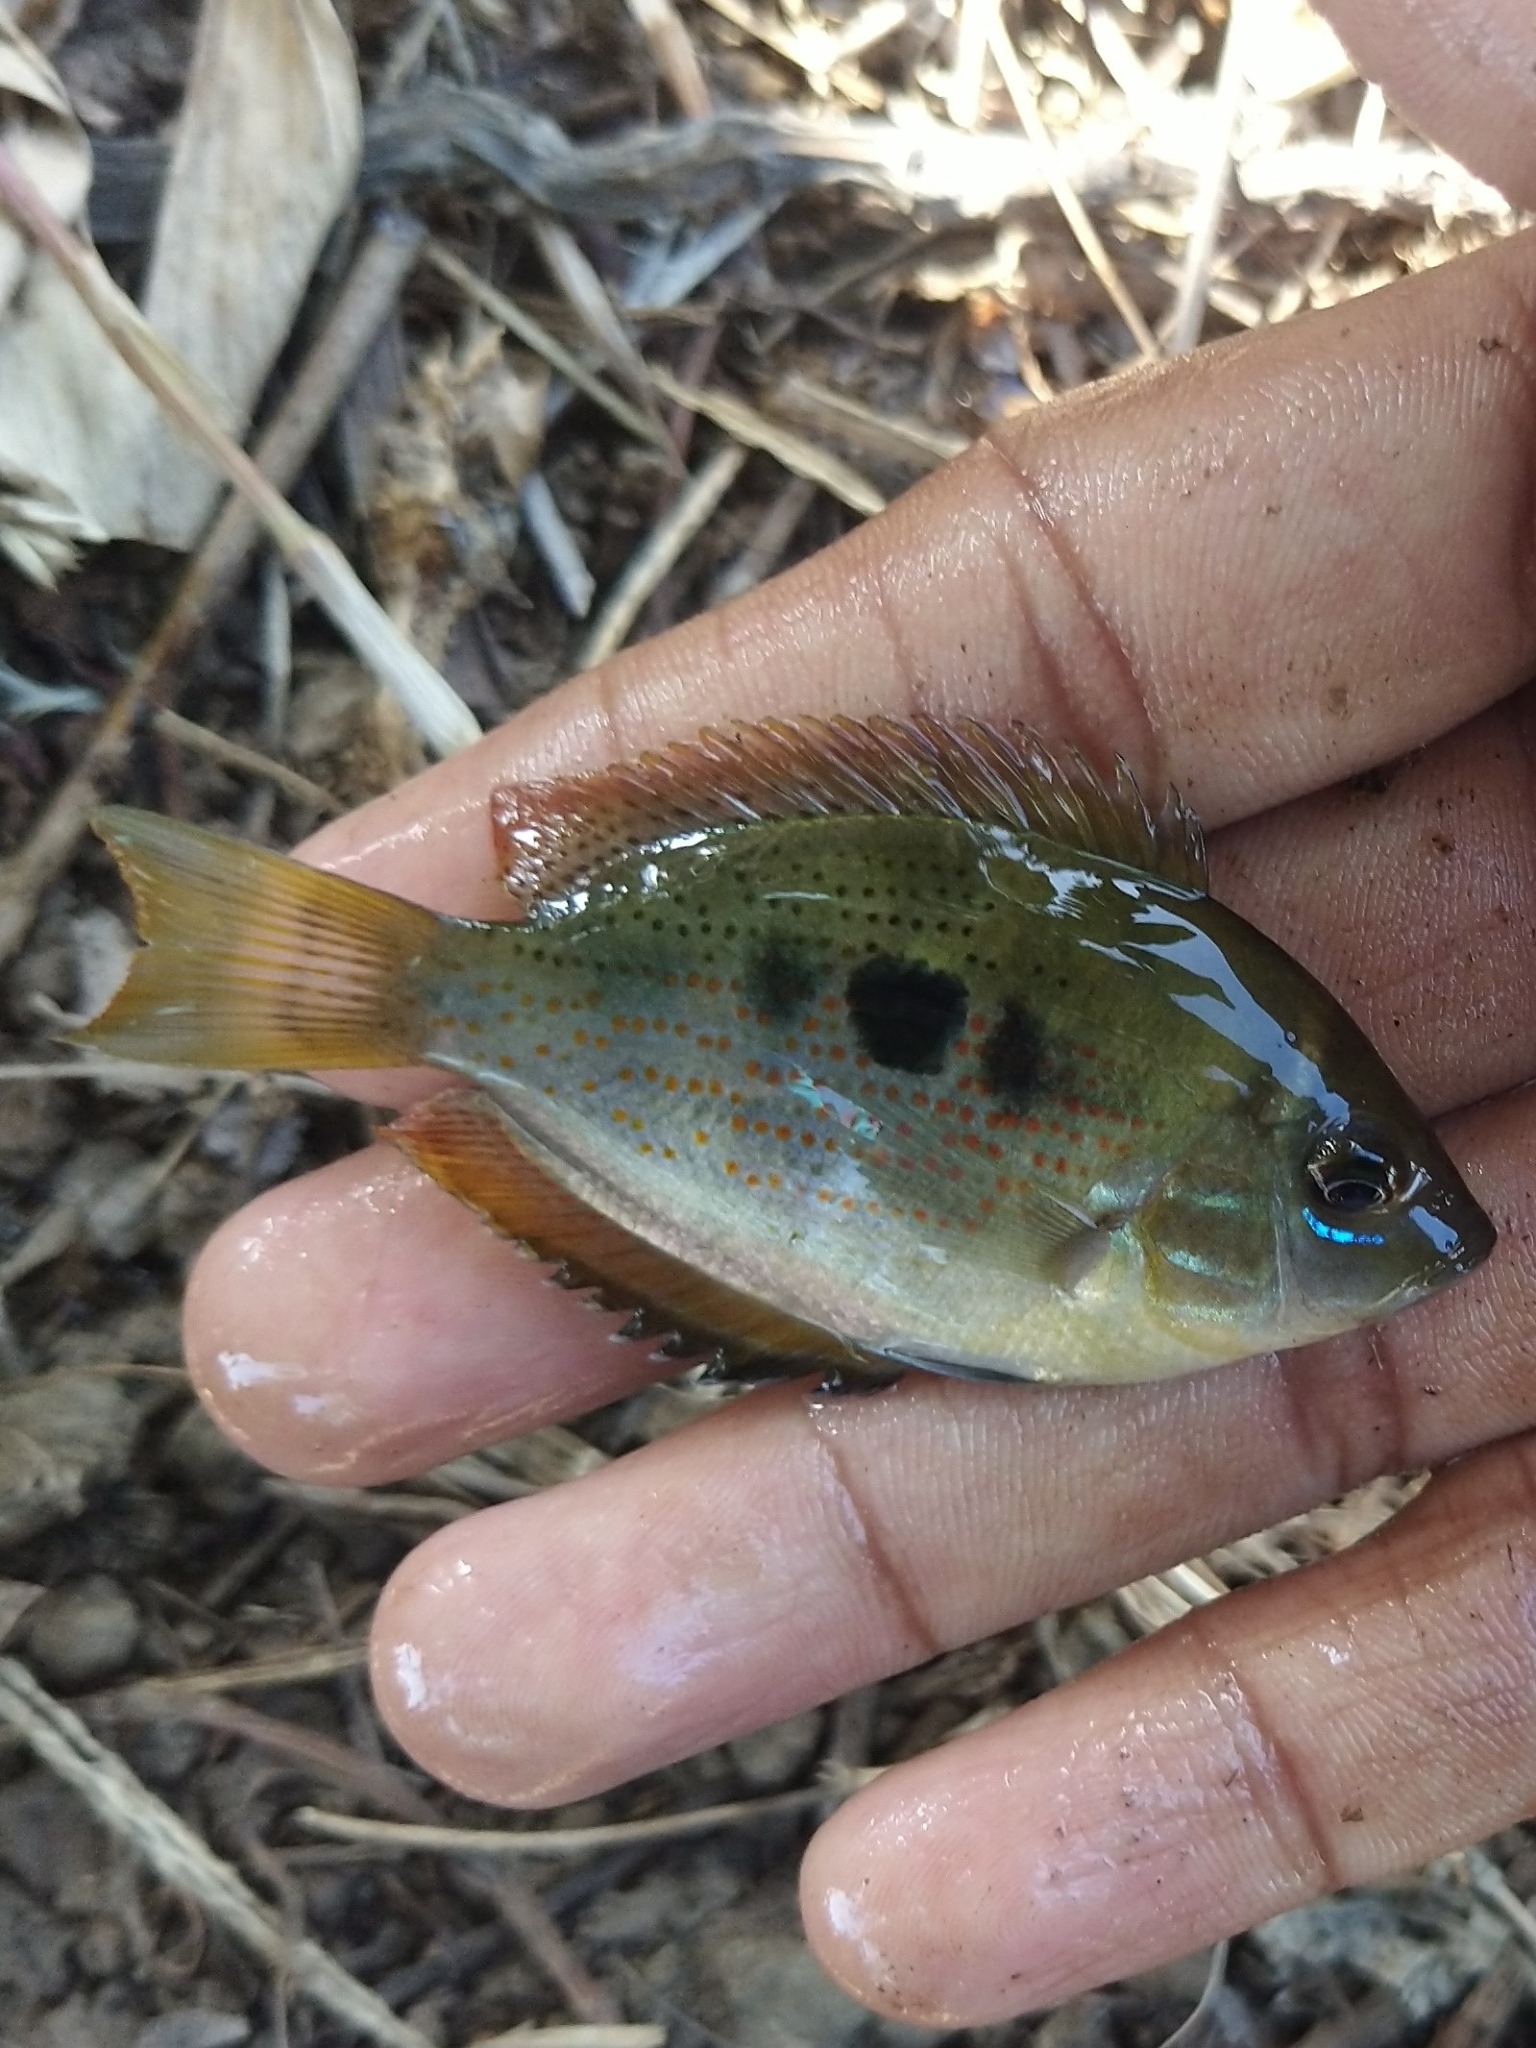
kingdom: Animalia
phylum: Chordata
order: Perciformes
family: Cichlidae
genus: Etroplus
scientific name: Etroplus maculatus
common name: Orange chromide
